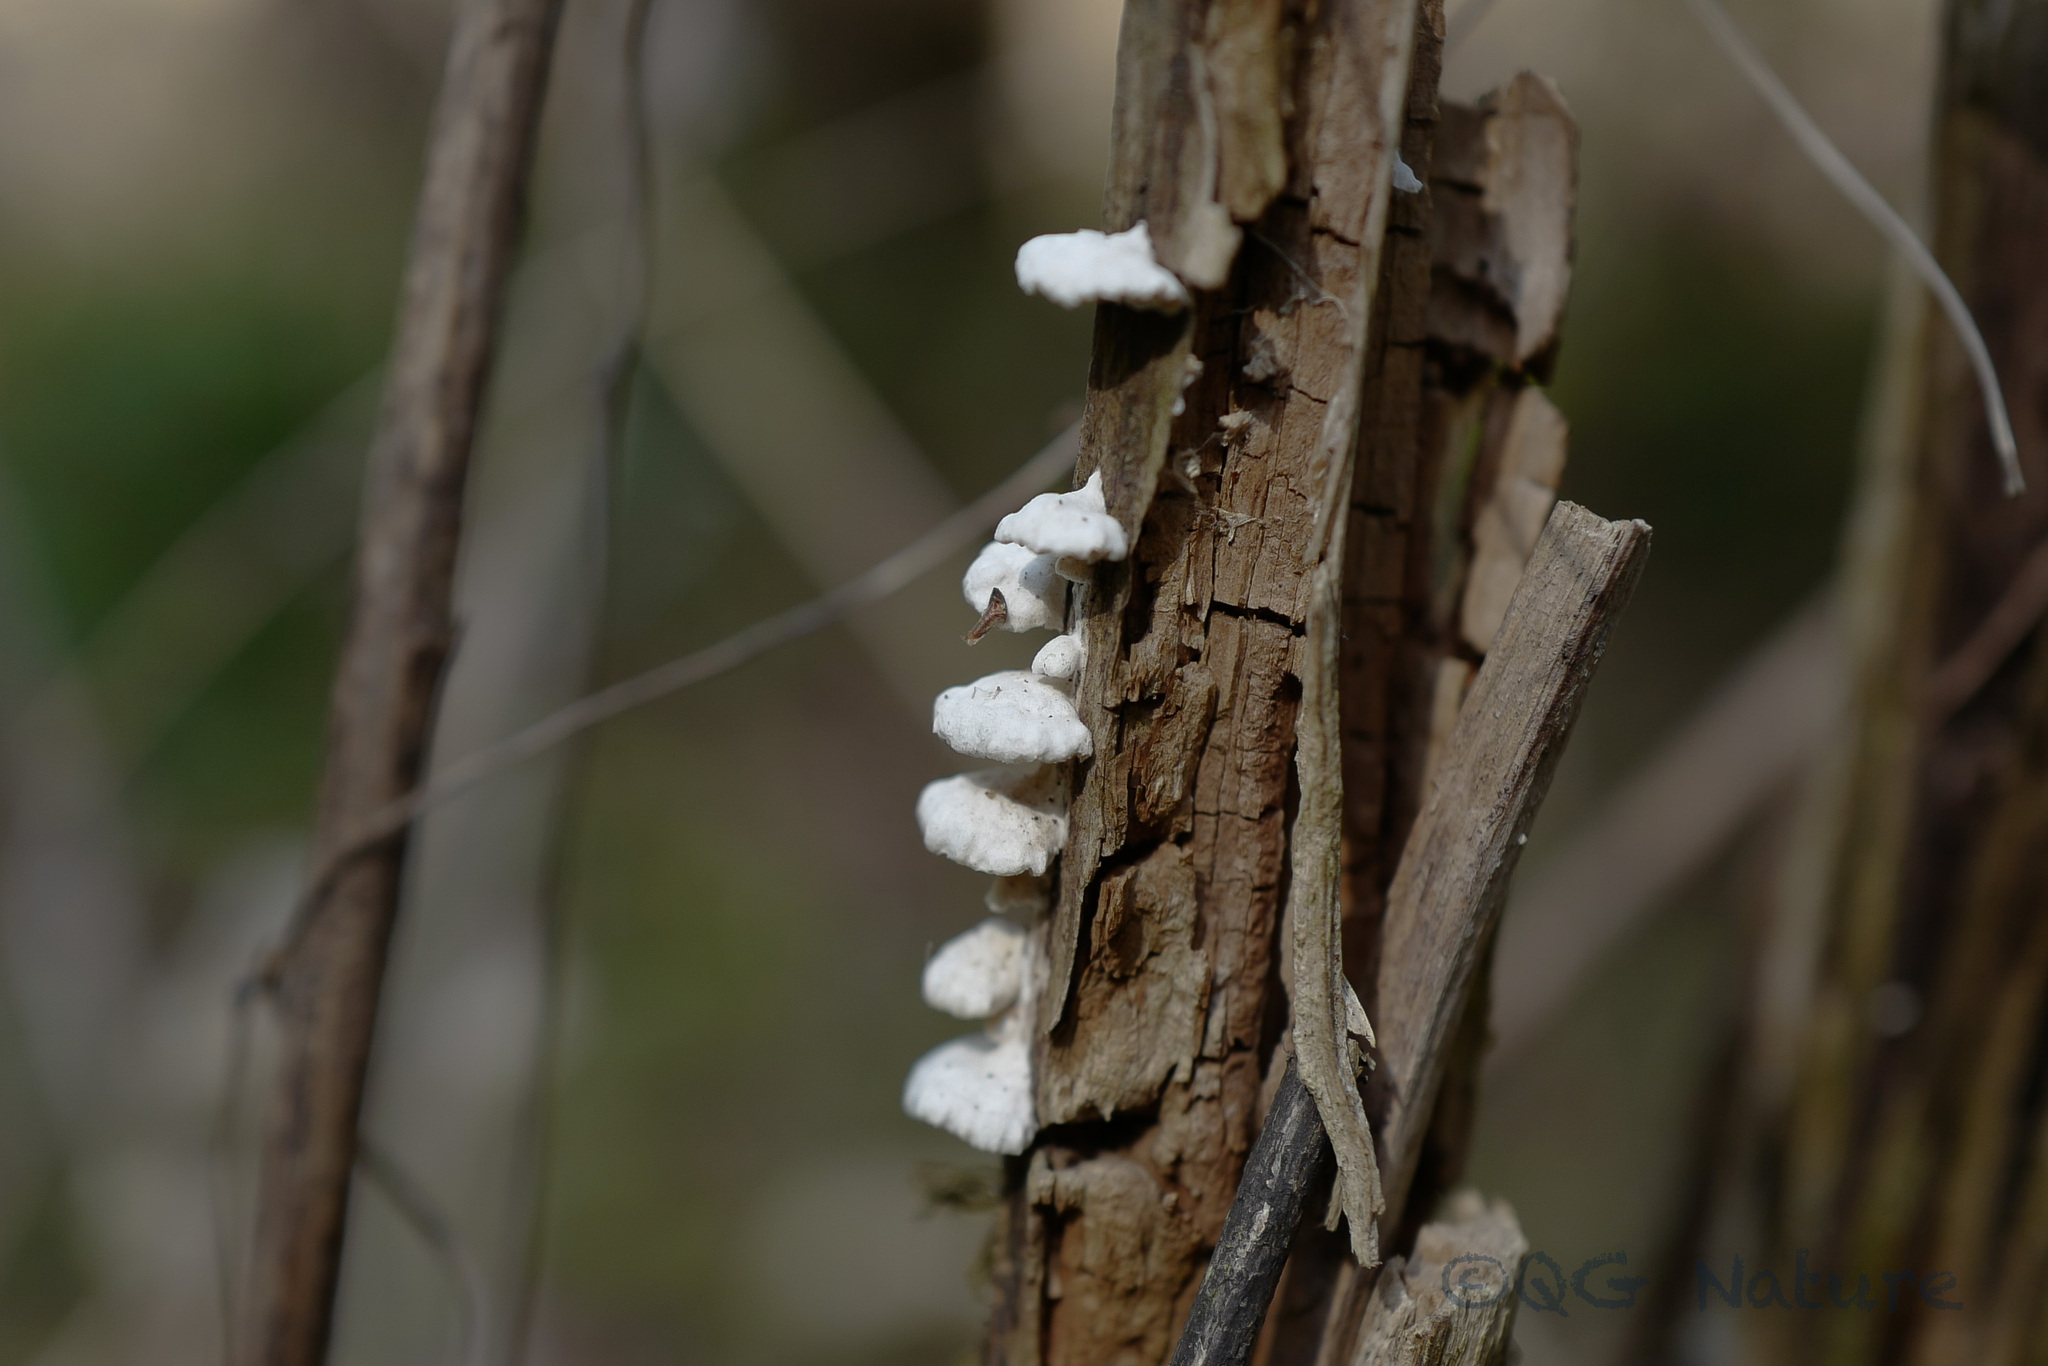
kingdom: Fungi
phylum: Basidiomycota
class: Agaricomycetes
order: Agaricales
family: Schizophyllaceae
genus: Schizophyllum
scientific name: Schizophyllum commune
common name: Common porecrust
